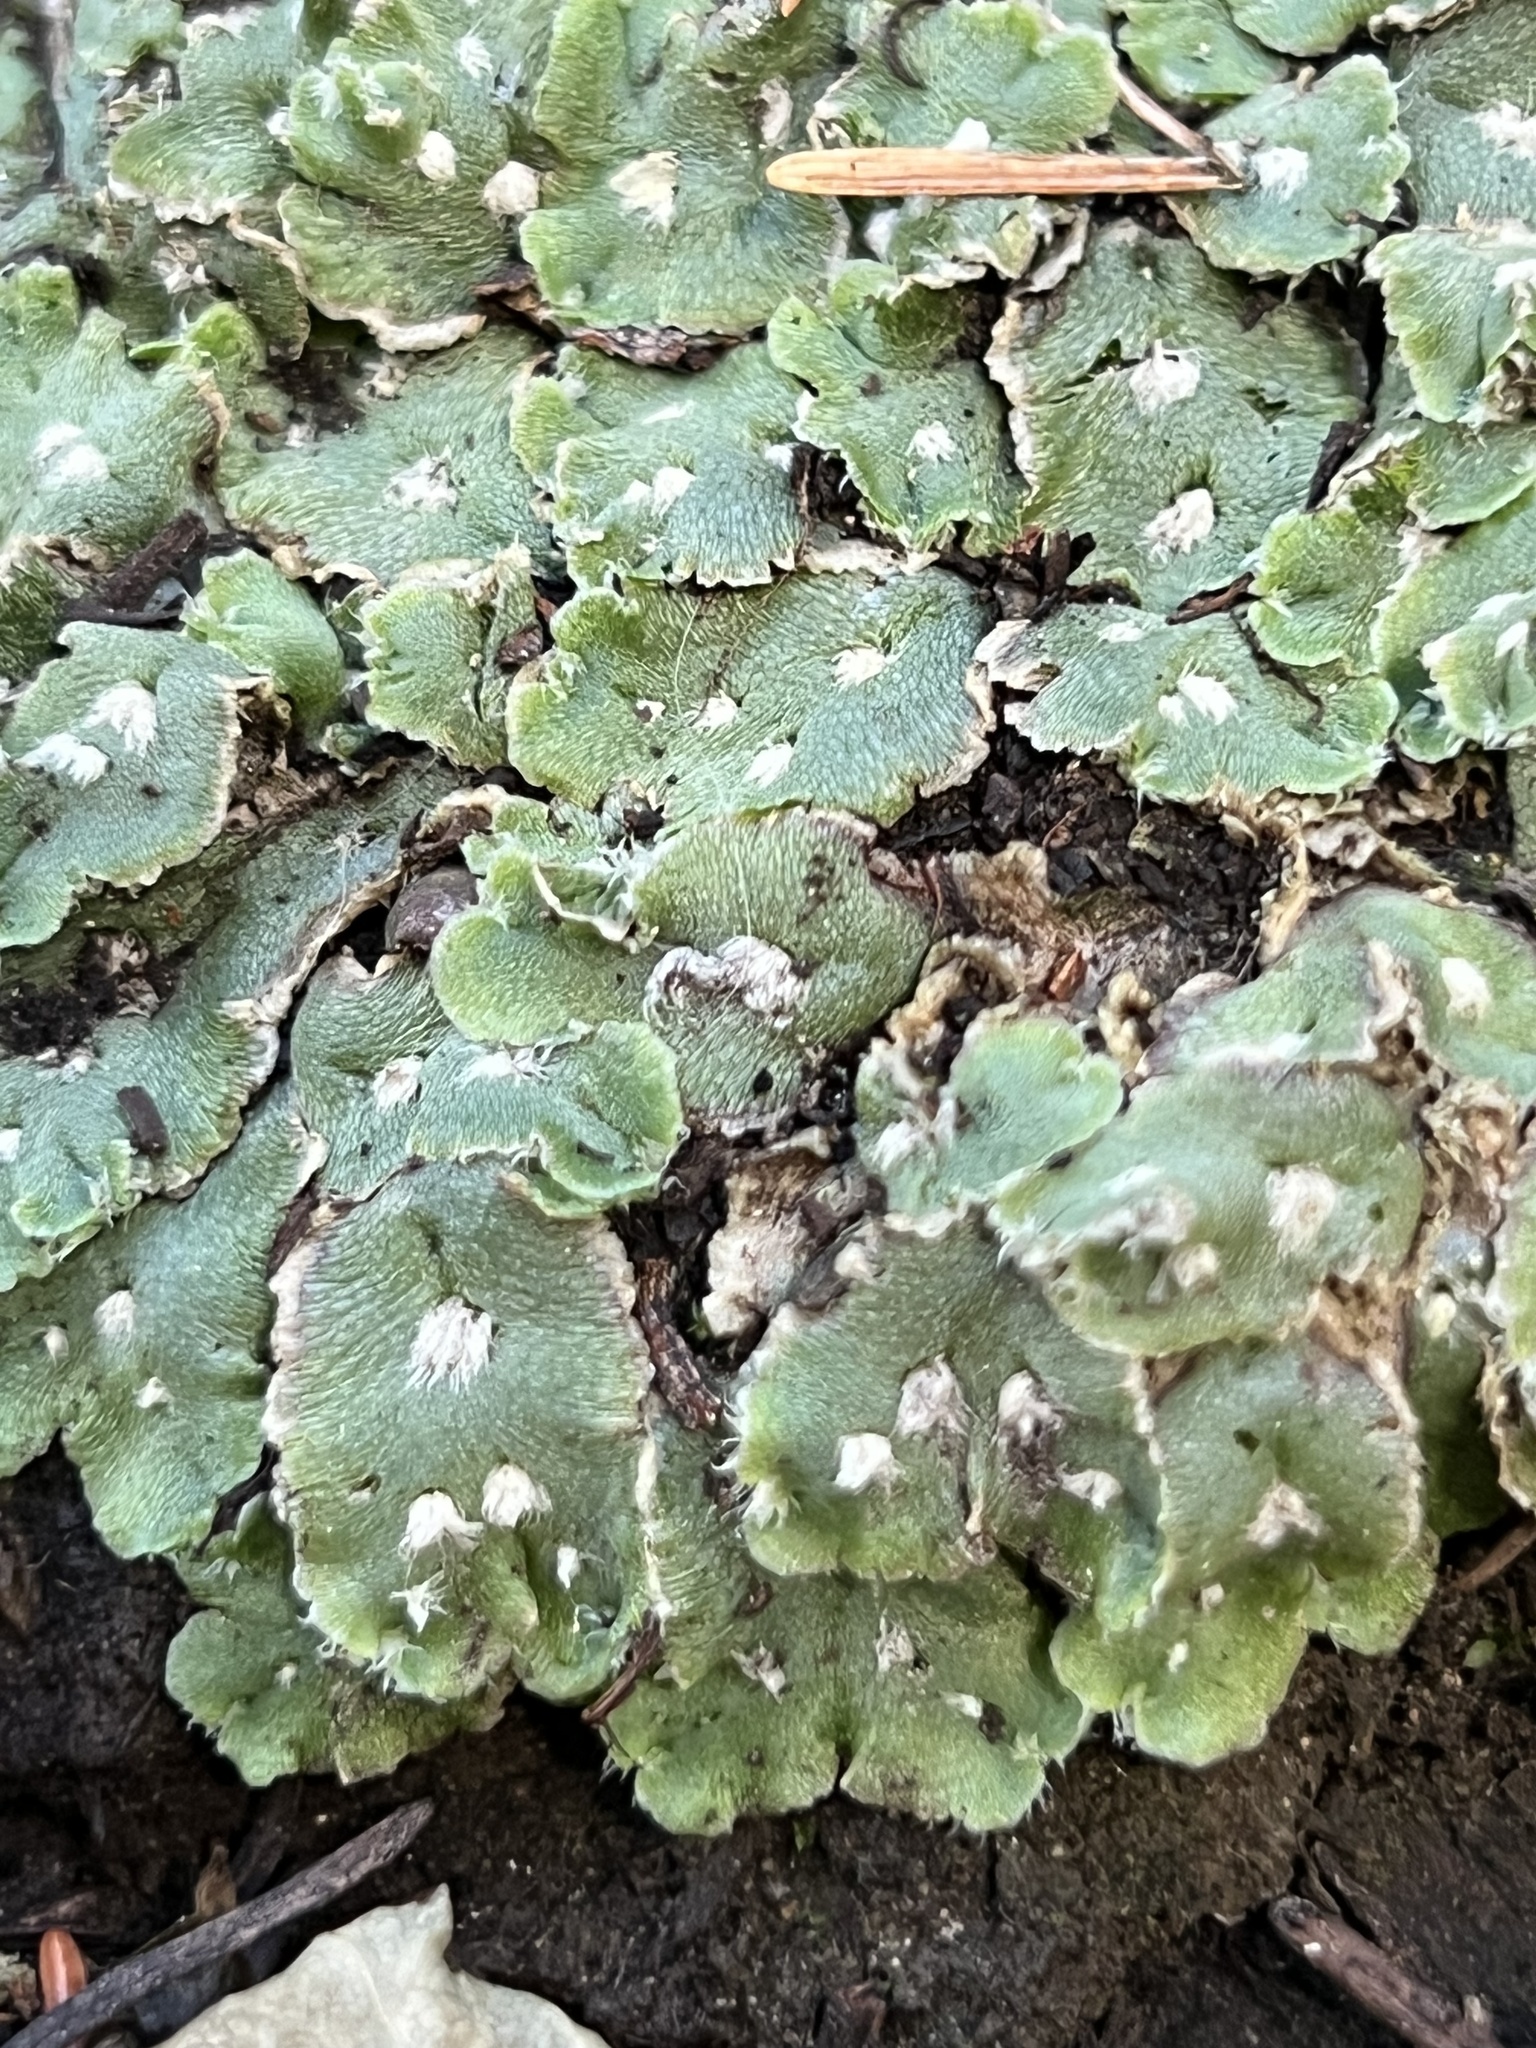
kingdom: Plantae
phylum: Marchantiophyta
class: Marchantiopsida
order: Marchantiales
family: Cleveaceae
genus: Clevea
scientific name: Clevea hyalina
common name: Hyaline liverwort
